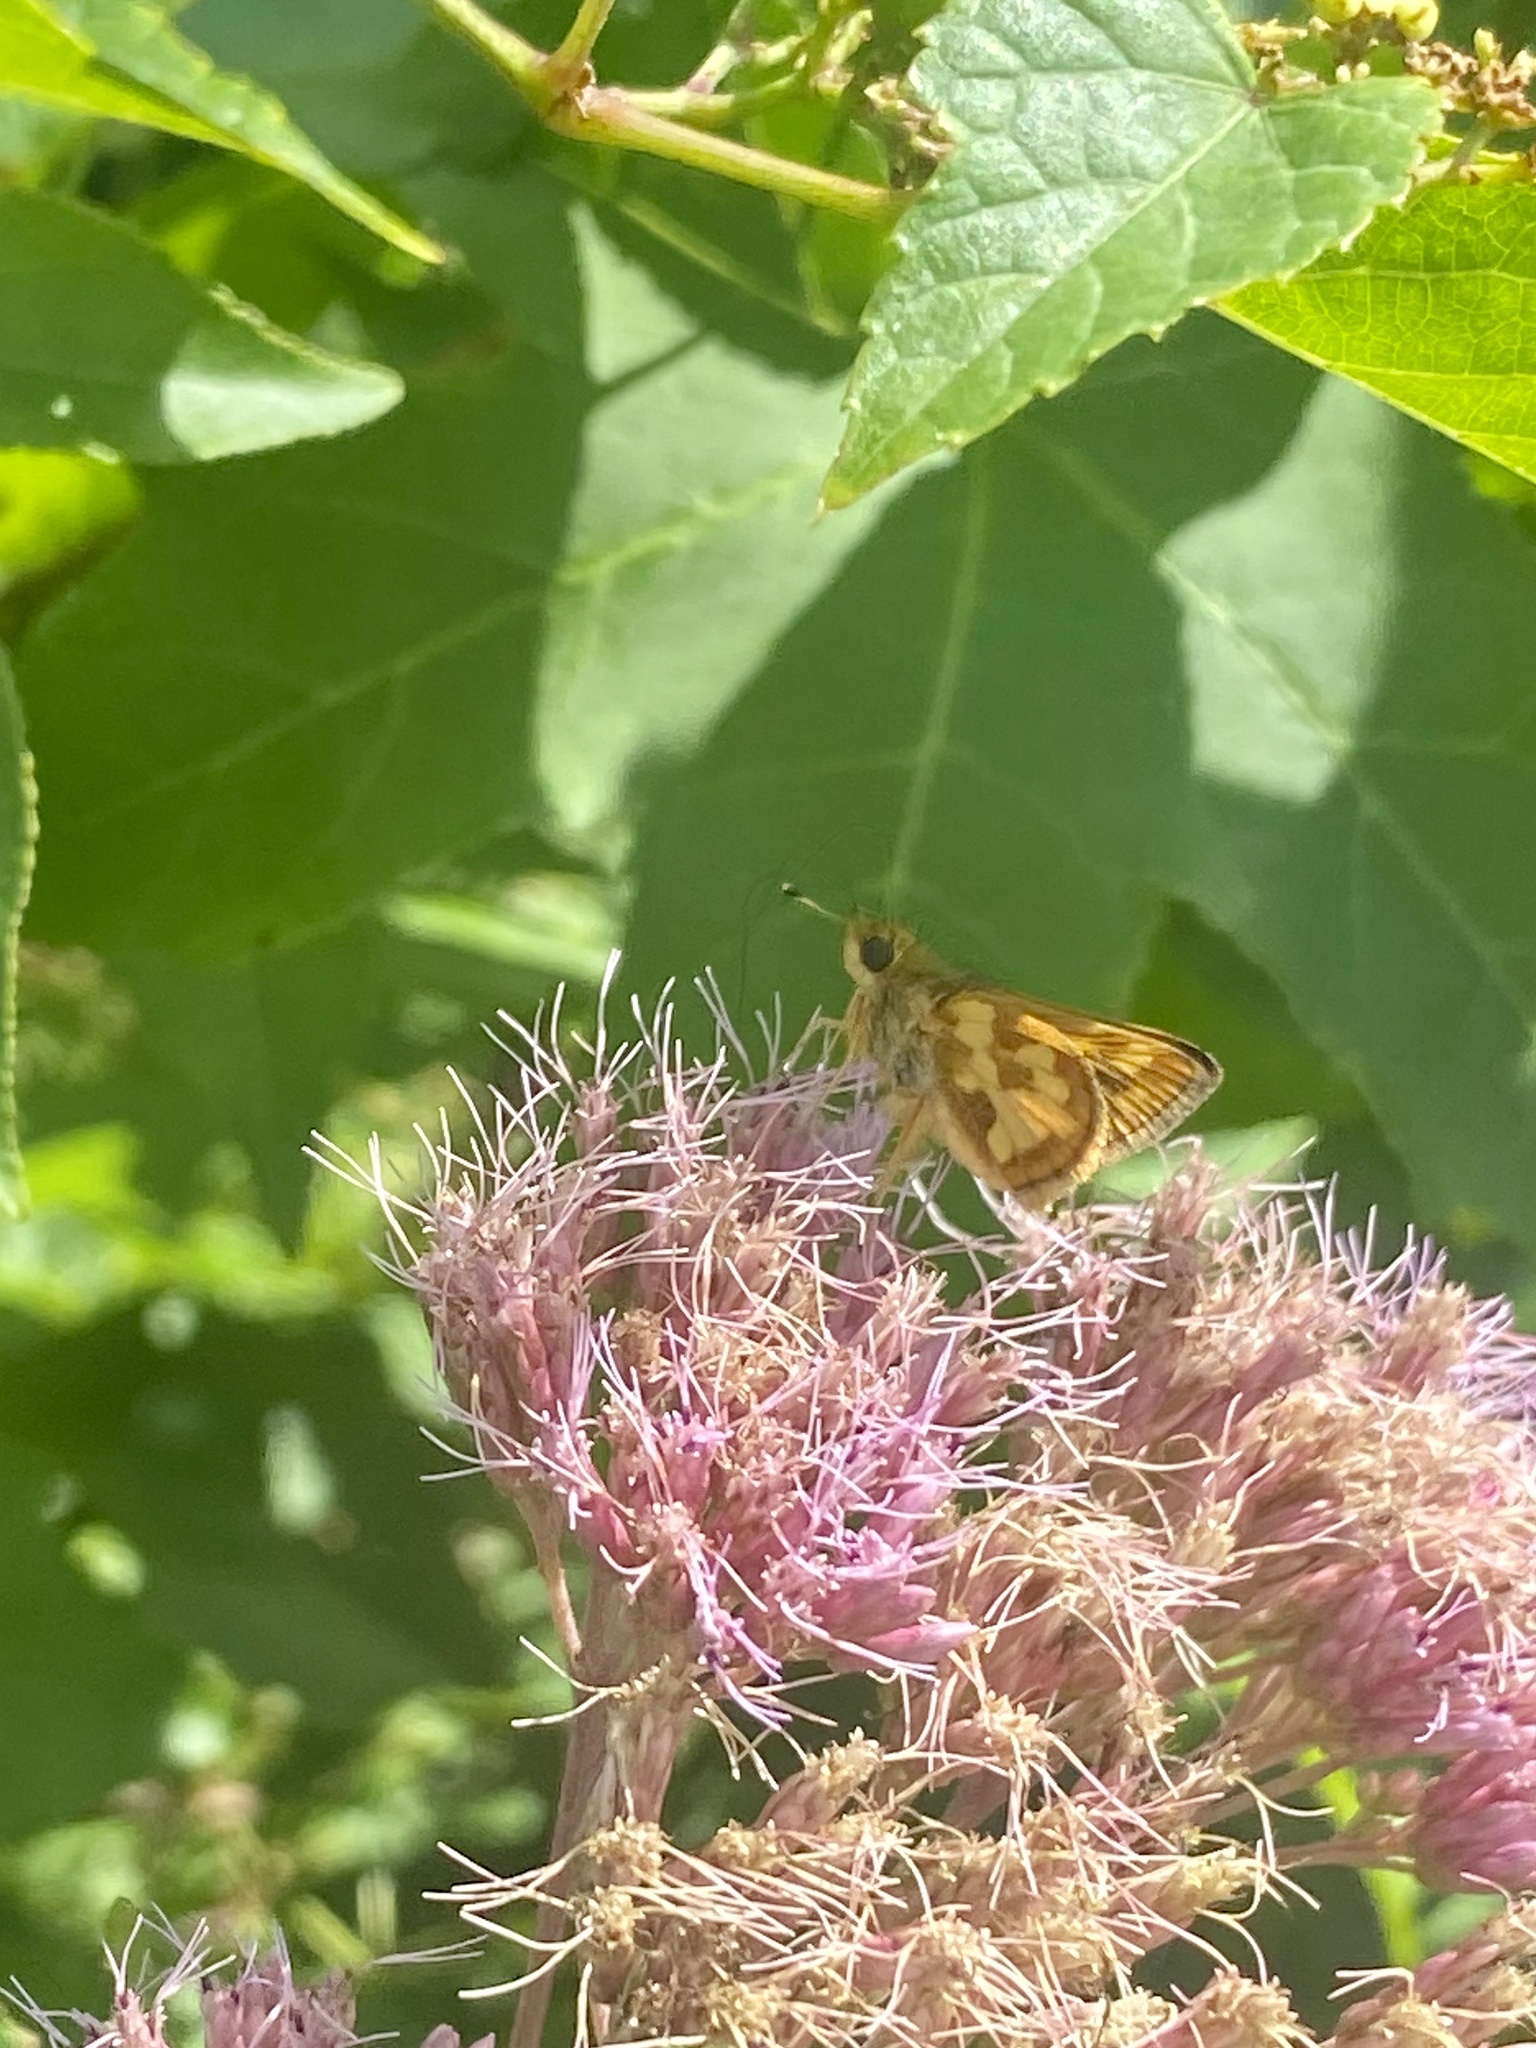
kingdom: Animalia
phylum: Arthropoda
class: Insecta
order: Lepidoptera
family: Hesperiidae
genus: Polites
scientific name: Polites coras
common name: Peck's skipper
